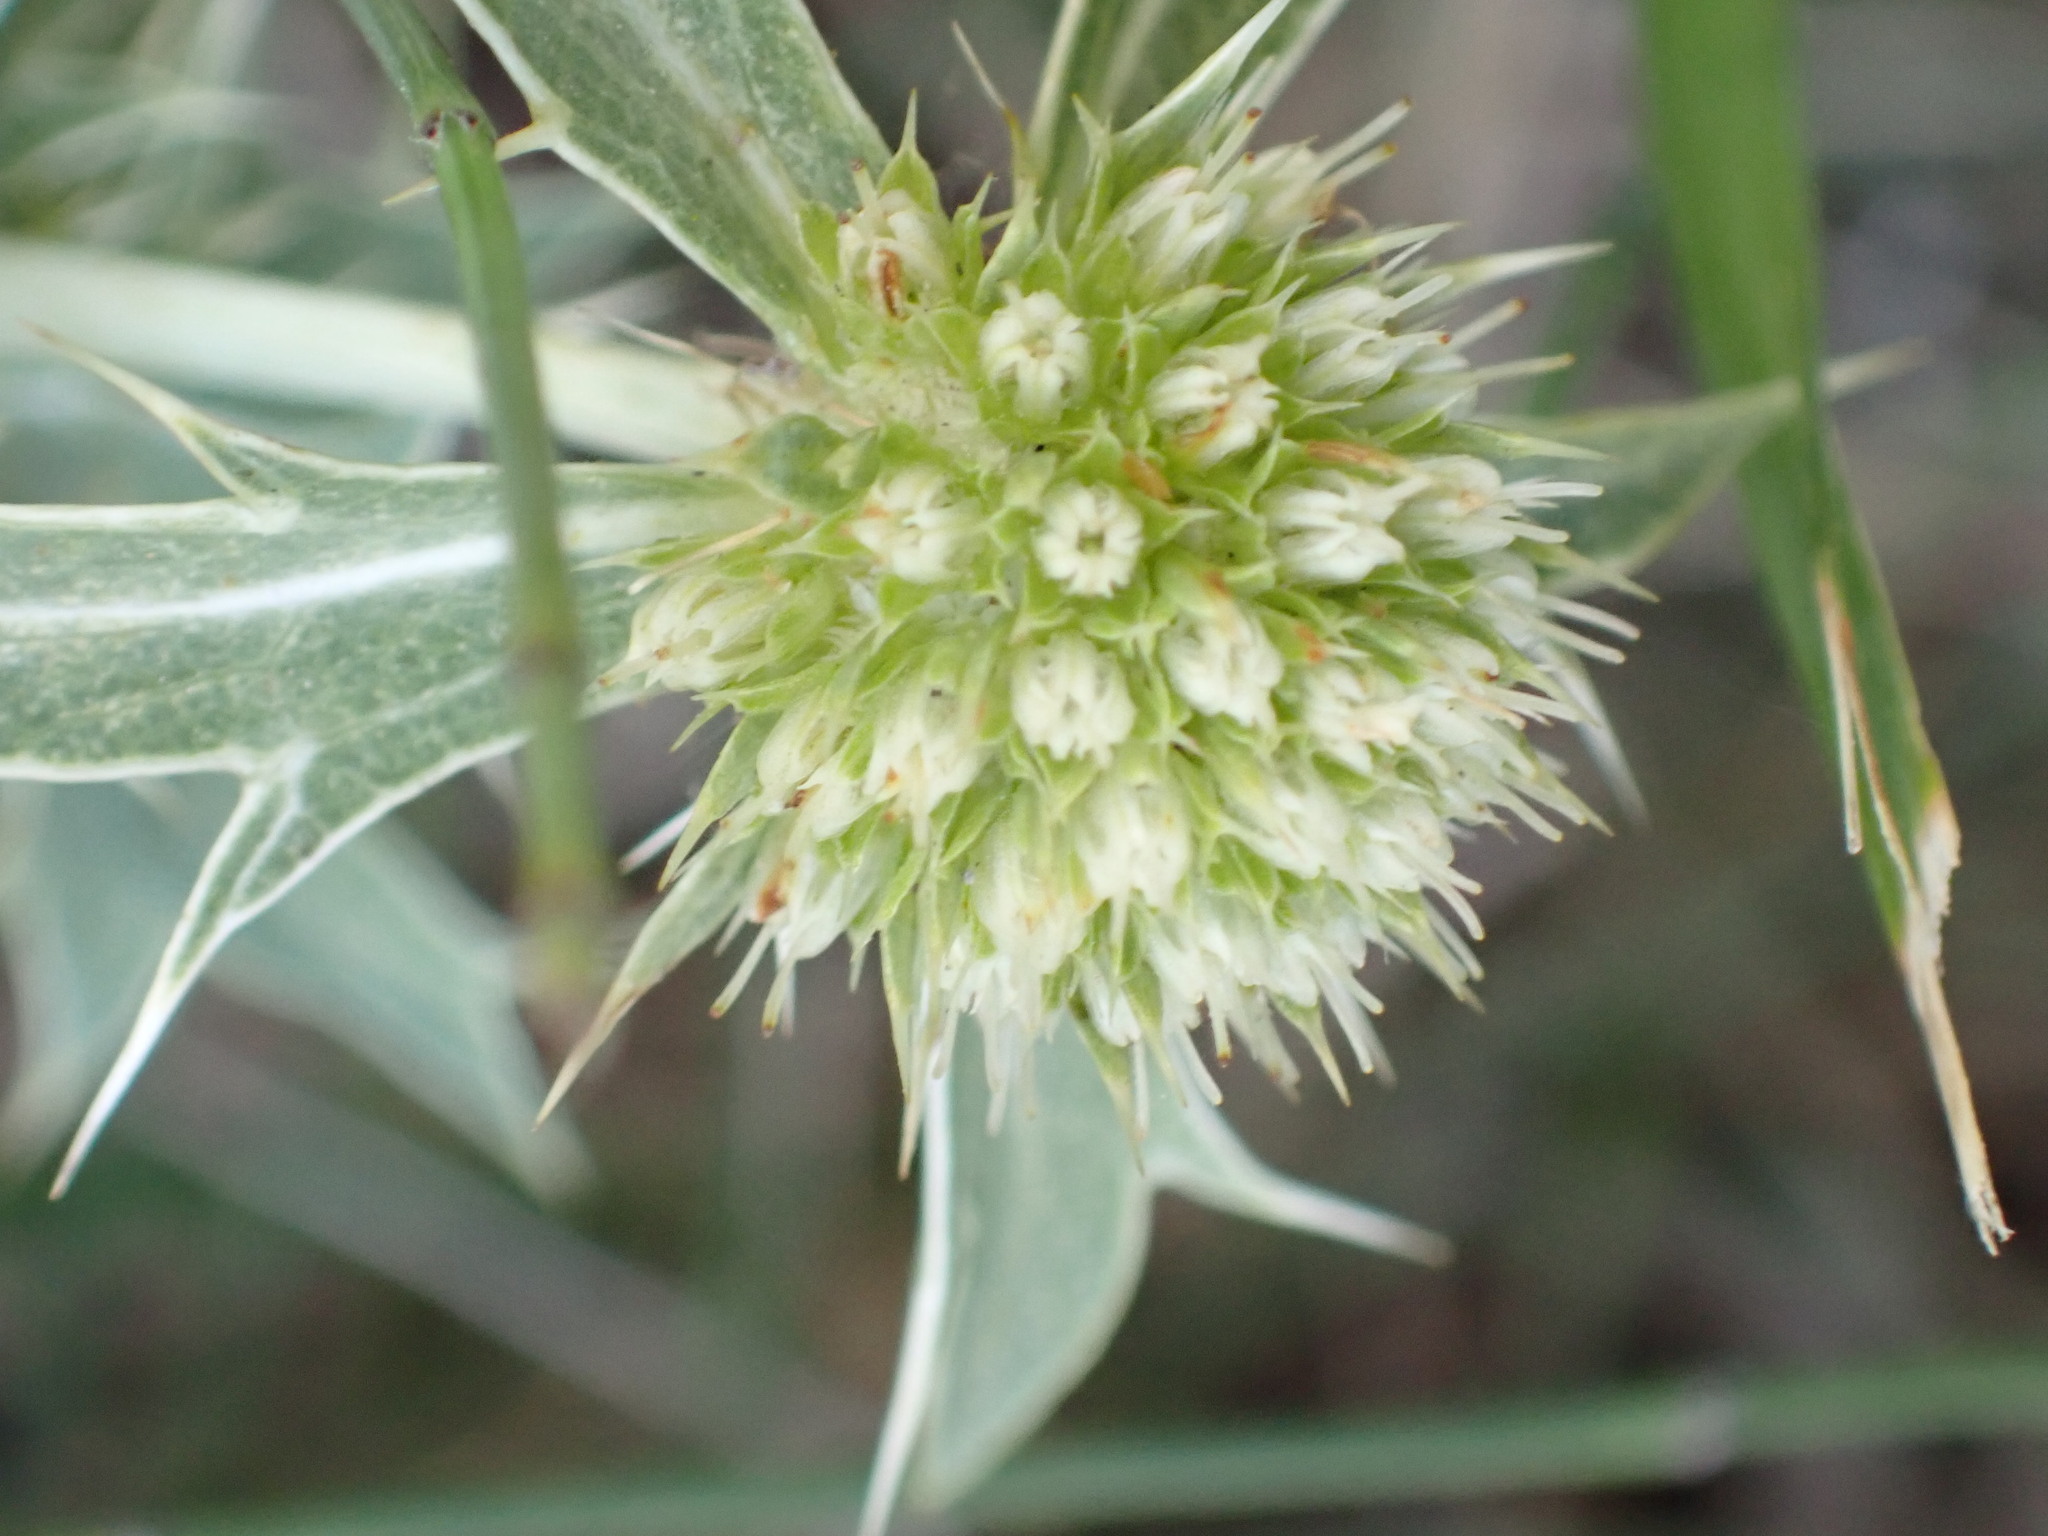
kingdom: Plantae
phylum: Tracheophyta
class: Magnoliopsida
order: Apiales
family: Apiaceae
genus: Eryngium
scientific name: Eryngium campestre
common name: Field eryngo
